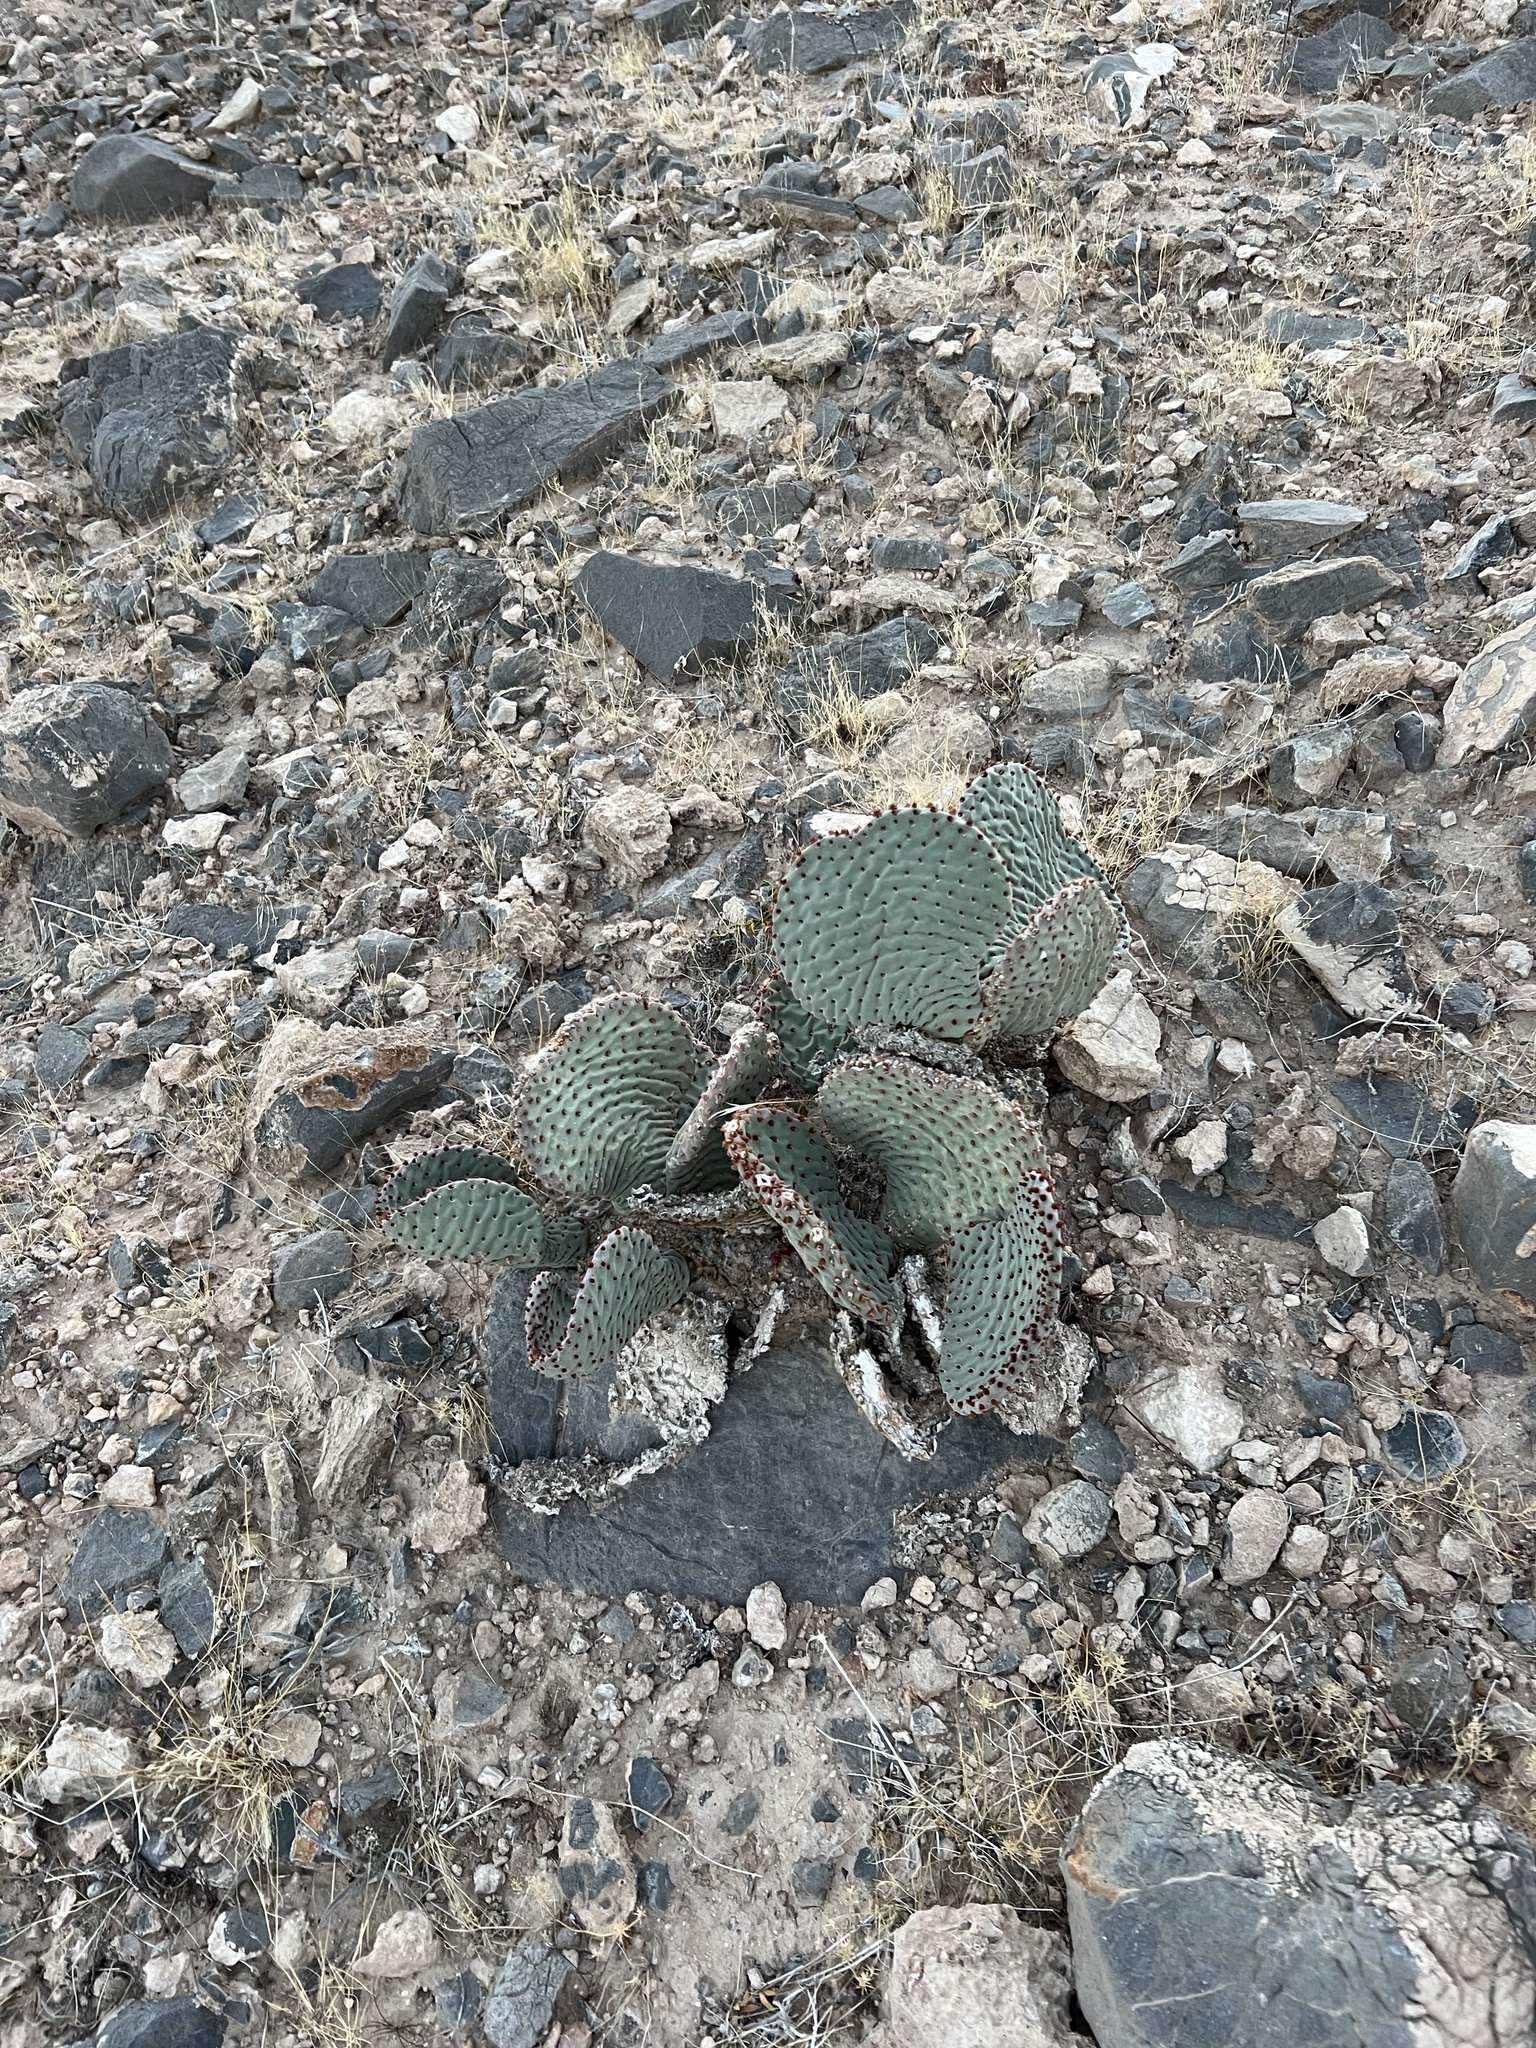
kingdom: Plantae
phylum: Tracheophyta
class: Magnoliopsida
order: Caryophyllales
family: Cactaceae
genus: Opuntia
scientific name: Opuntia basilaris
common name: Beavertail prickly-pear
